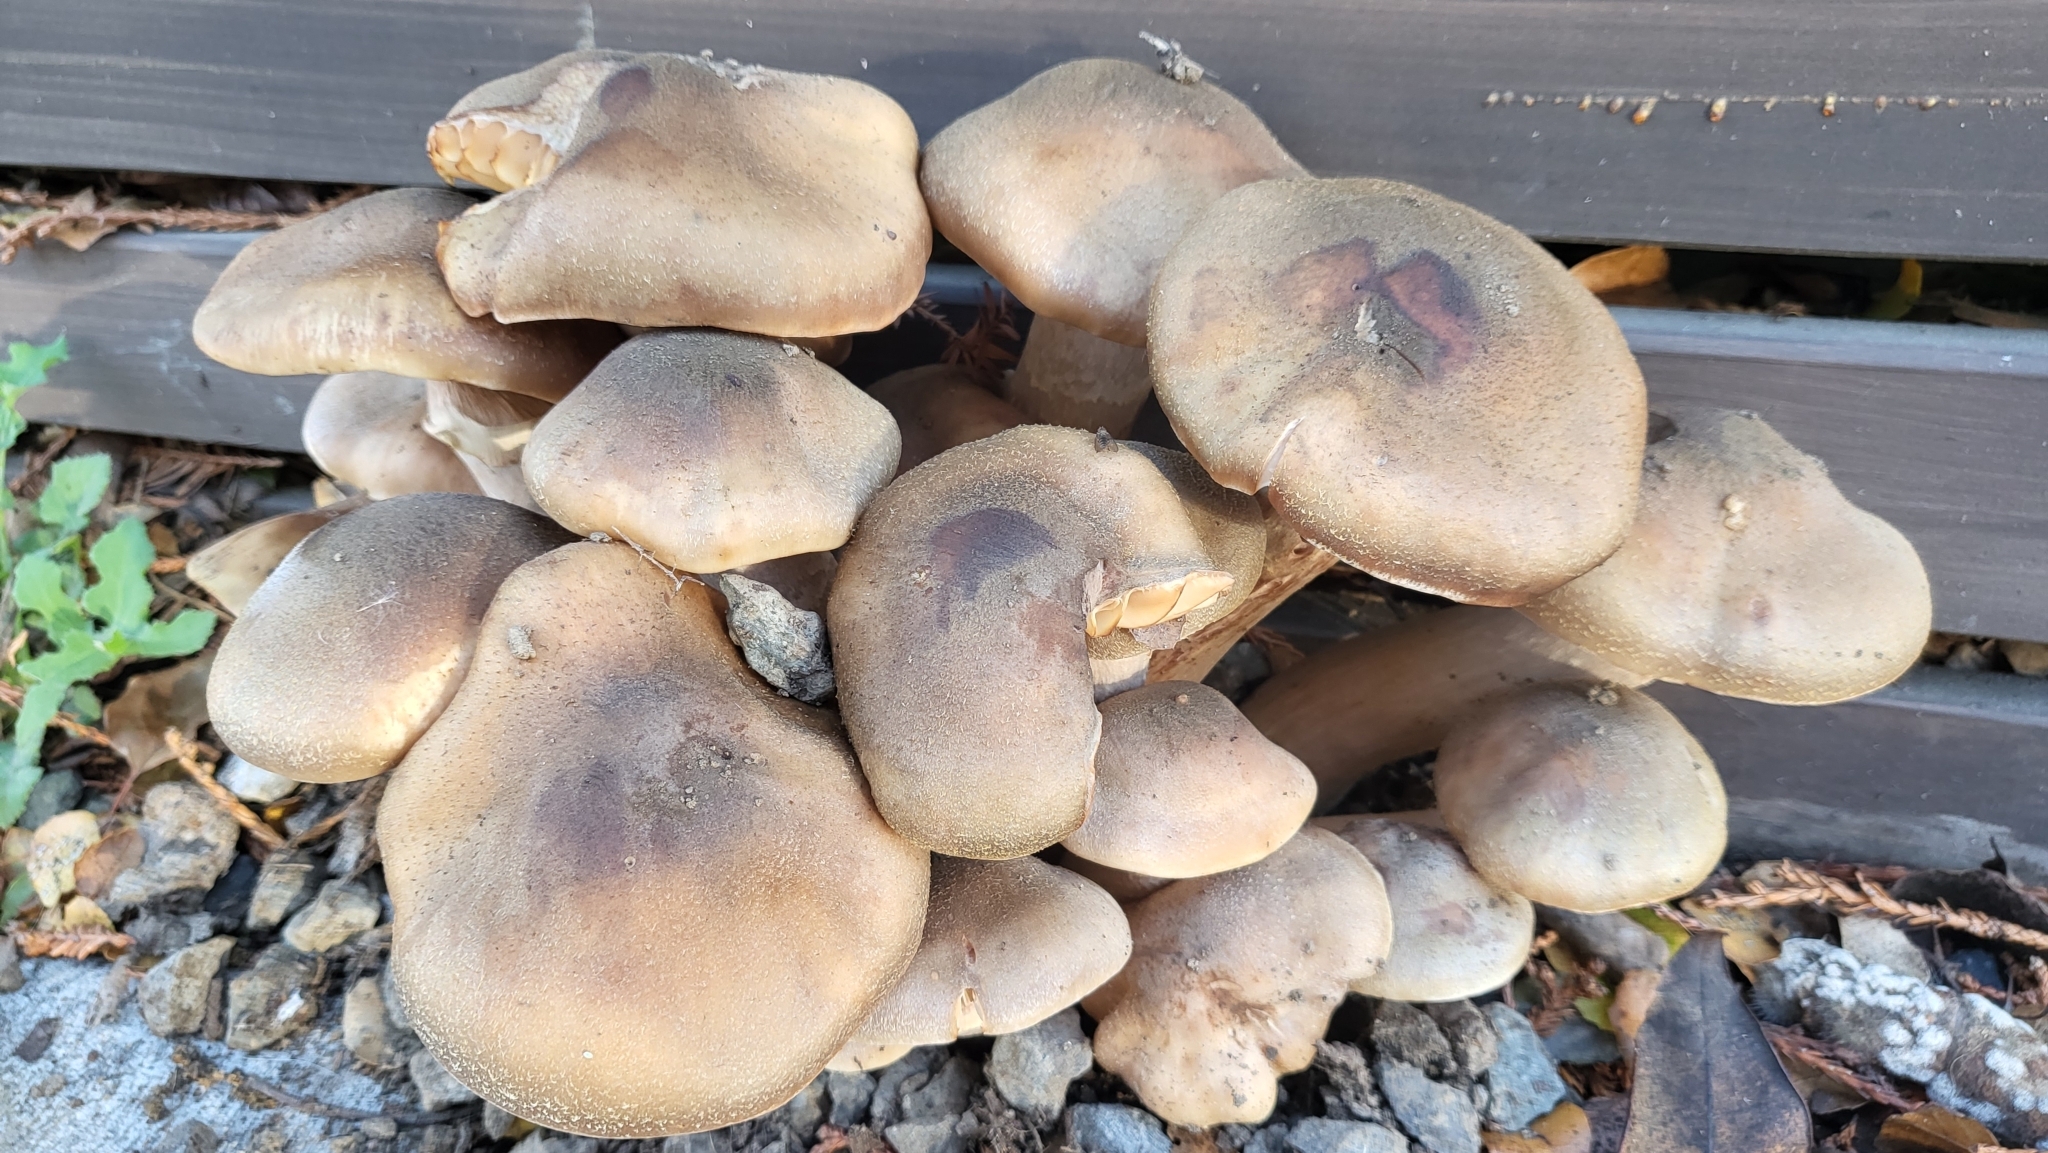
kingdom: Fungi
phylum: Basidiomycota
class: Agaricomycetes
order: Agaricales
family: Physalacriaceae
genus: Armillaria
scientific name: Armillaria mellea
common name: Honey fungus
